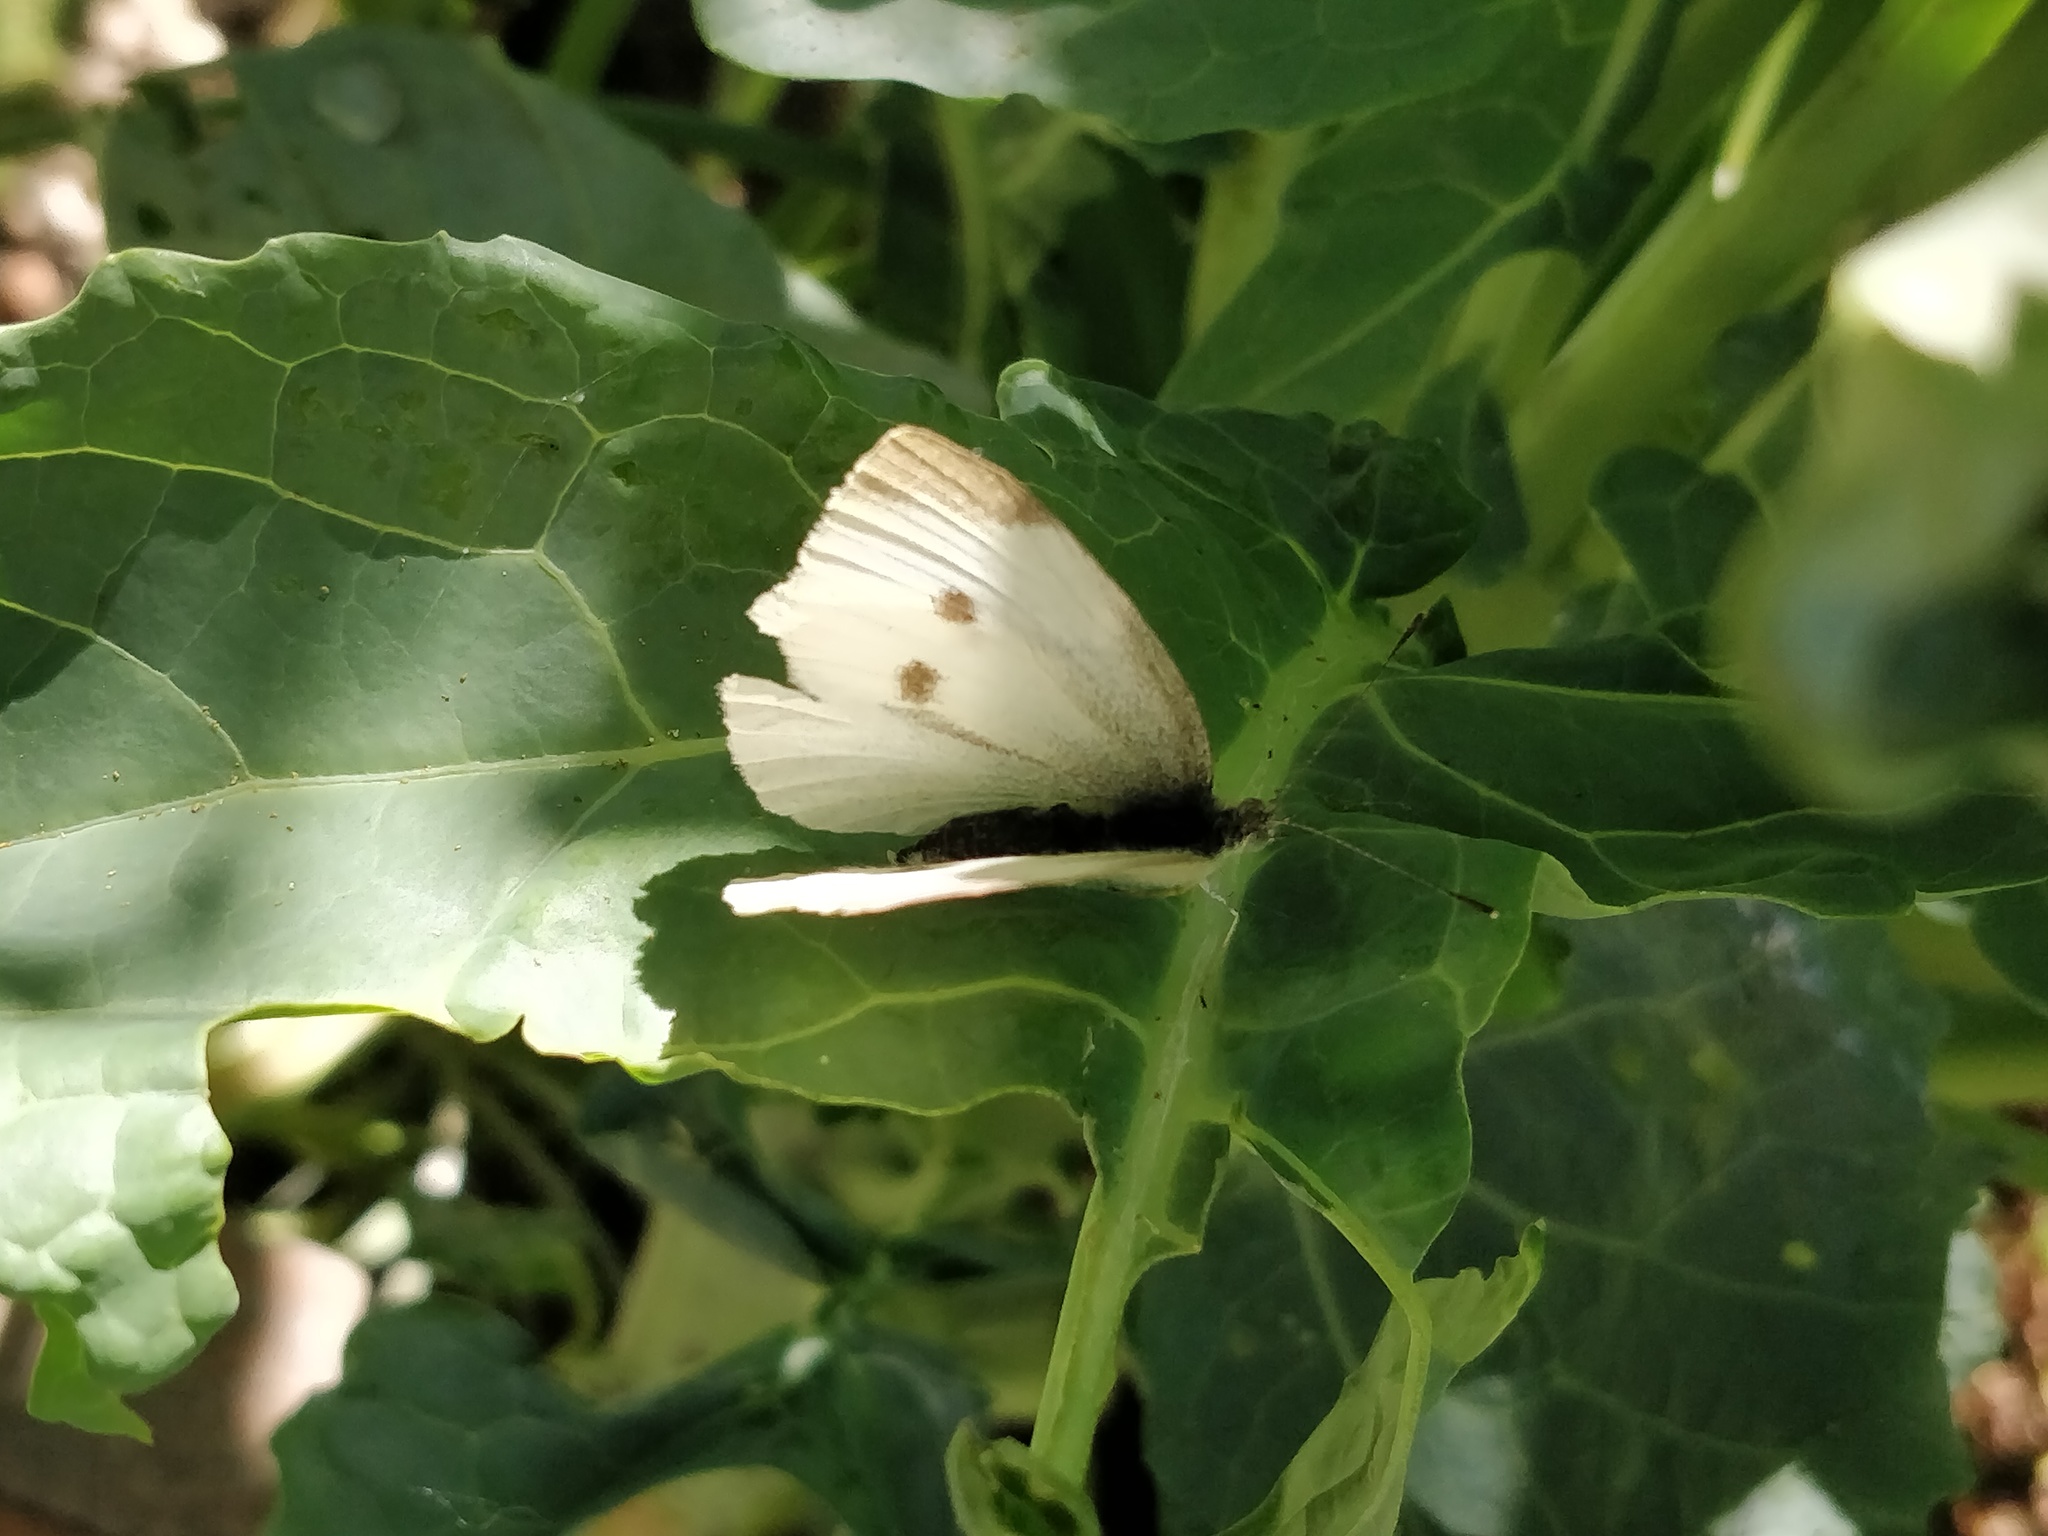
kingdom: Animalia
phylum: Arthropoda
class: Insecta
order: Lepidoptera
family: Pieridae
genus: Pieris
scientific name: Pieris rapae
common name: Small white
